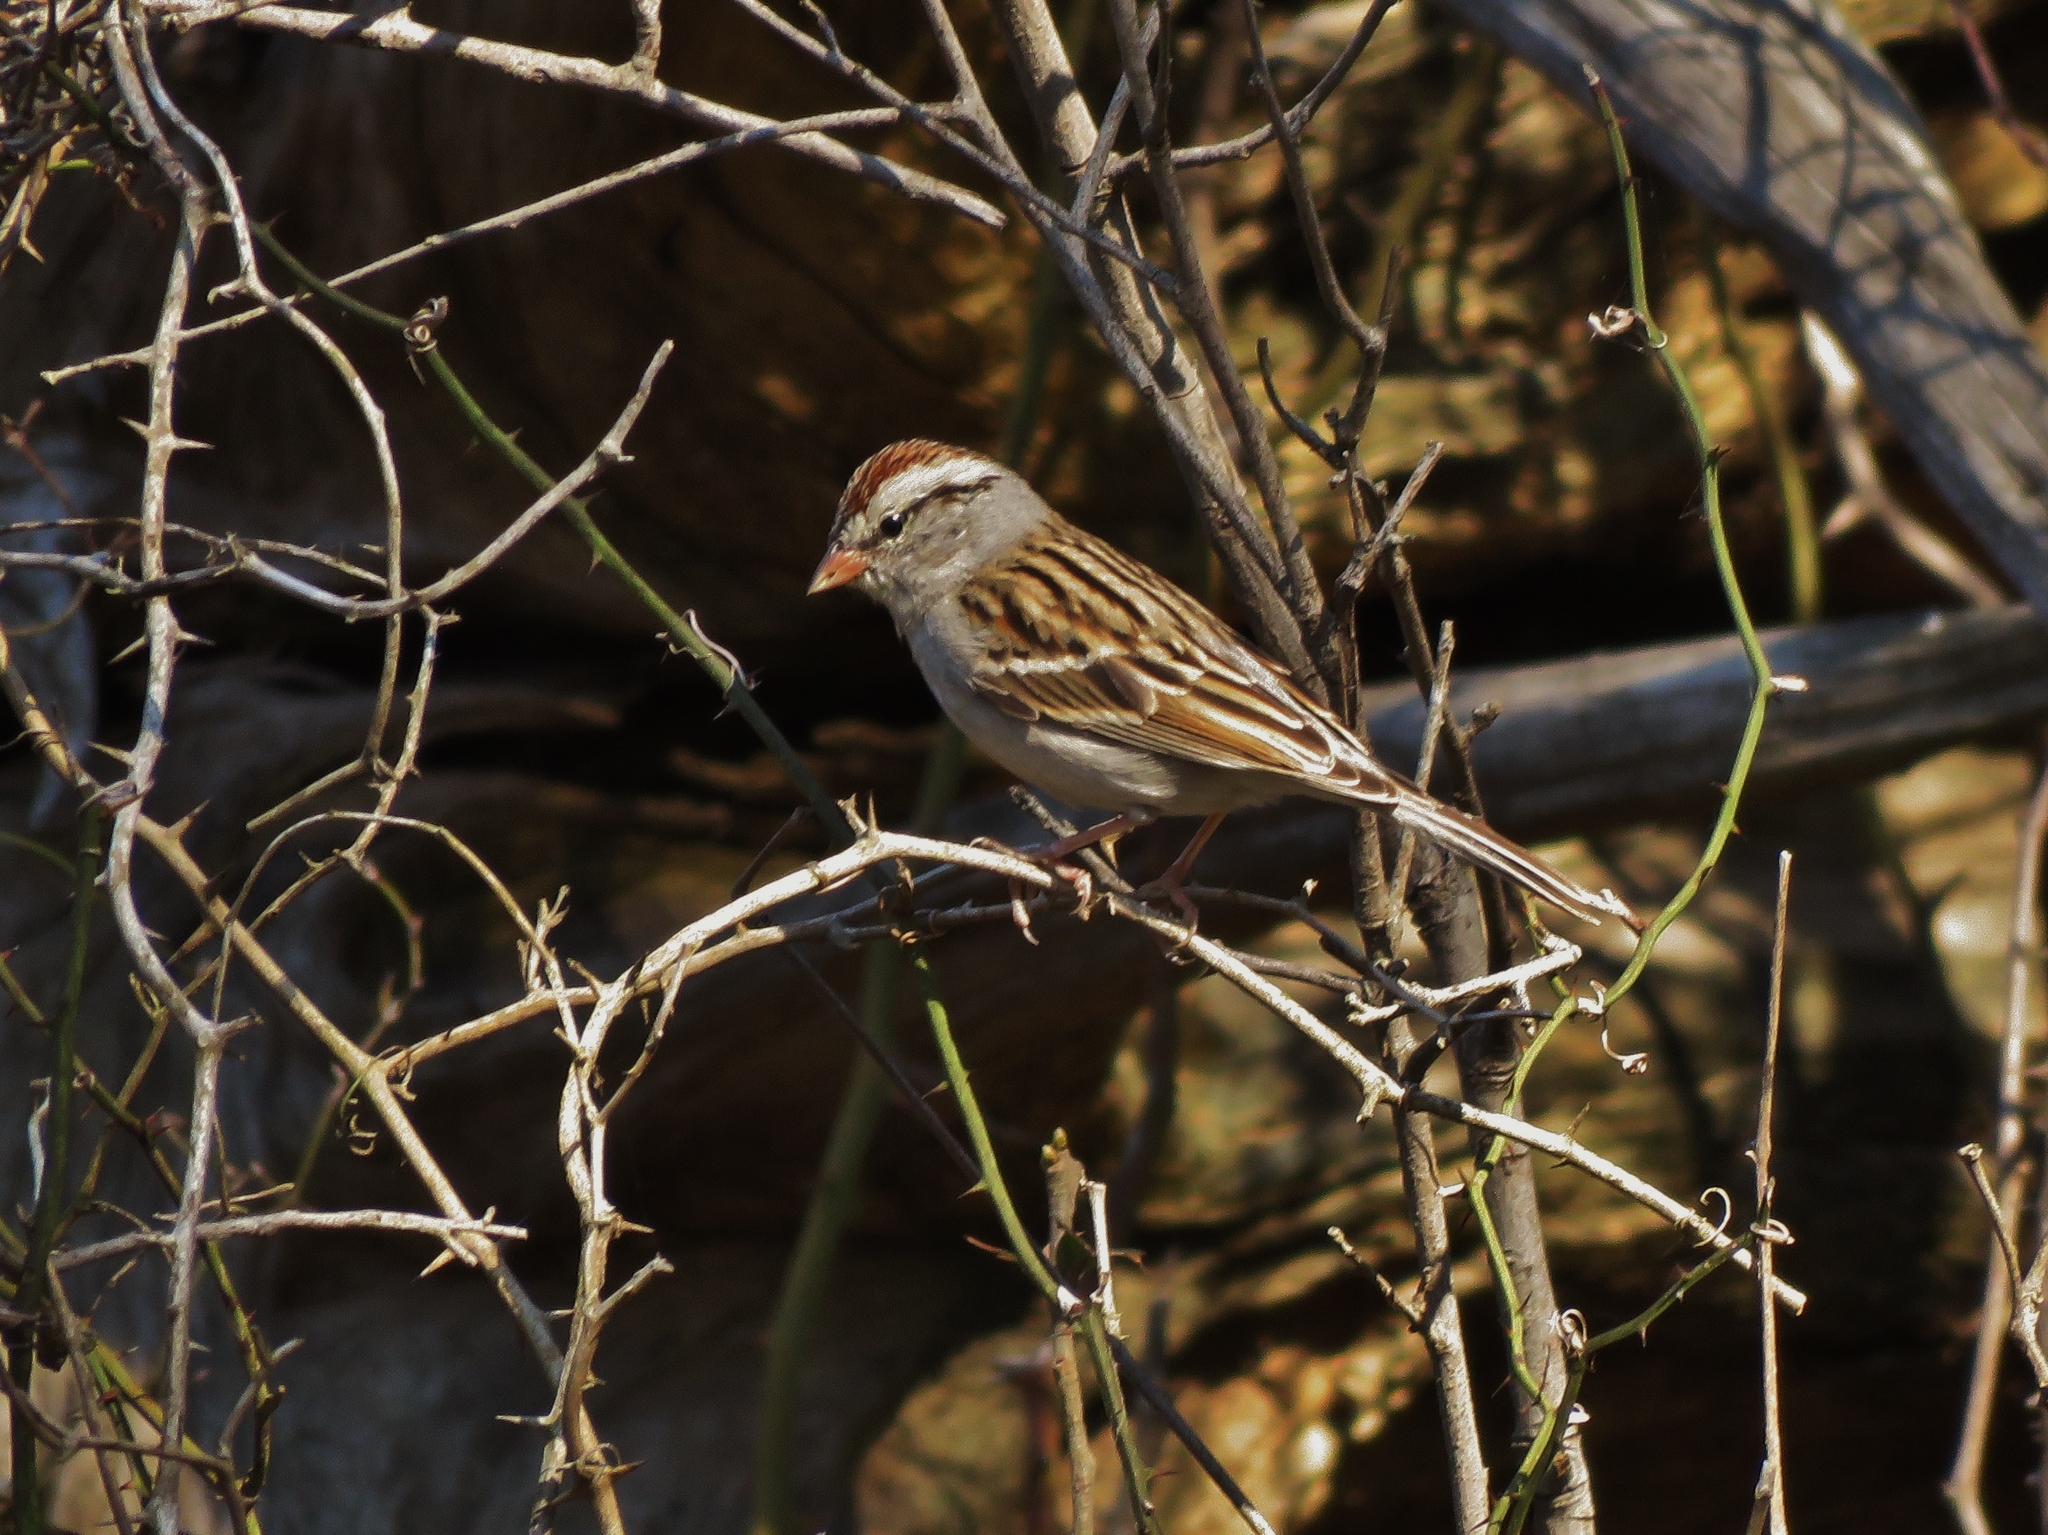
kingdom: Animalia
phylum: Chordata
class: Aves
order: Passeriformes
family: Passerellidae
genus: Spizella
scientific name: Spizella passerina
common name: Chipping sparrow
